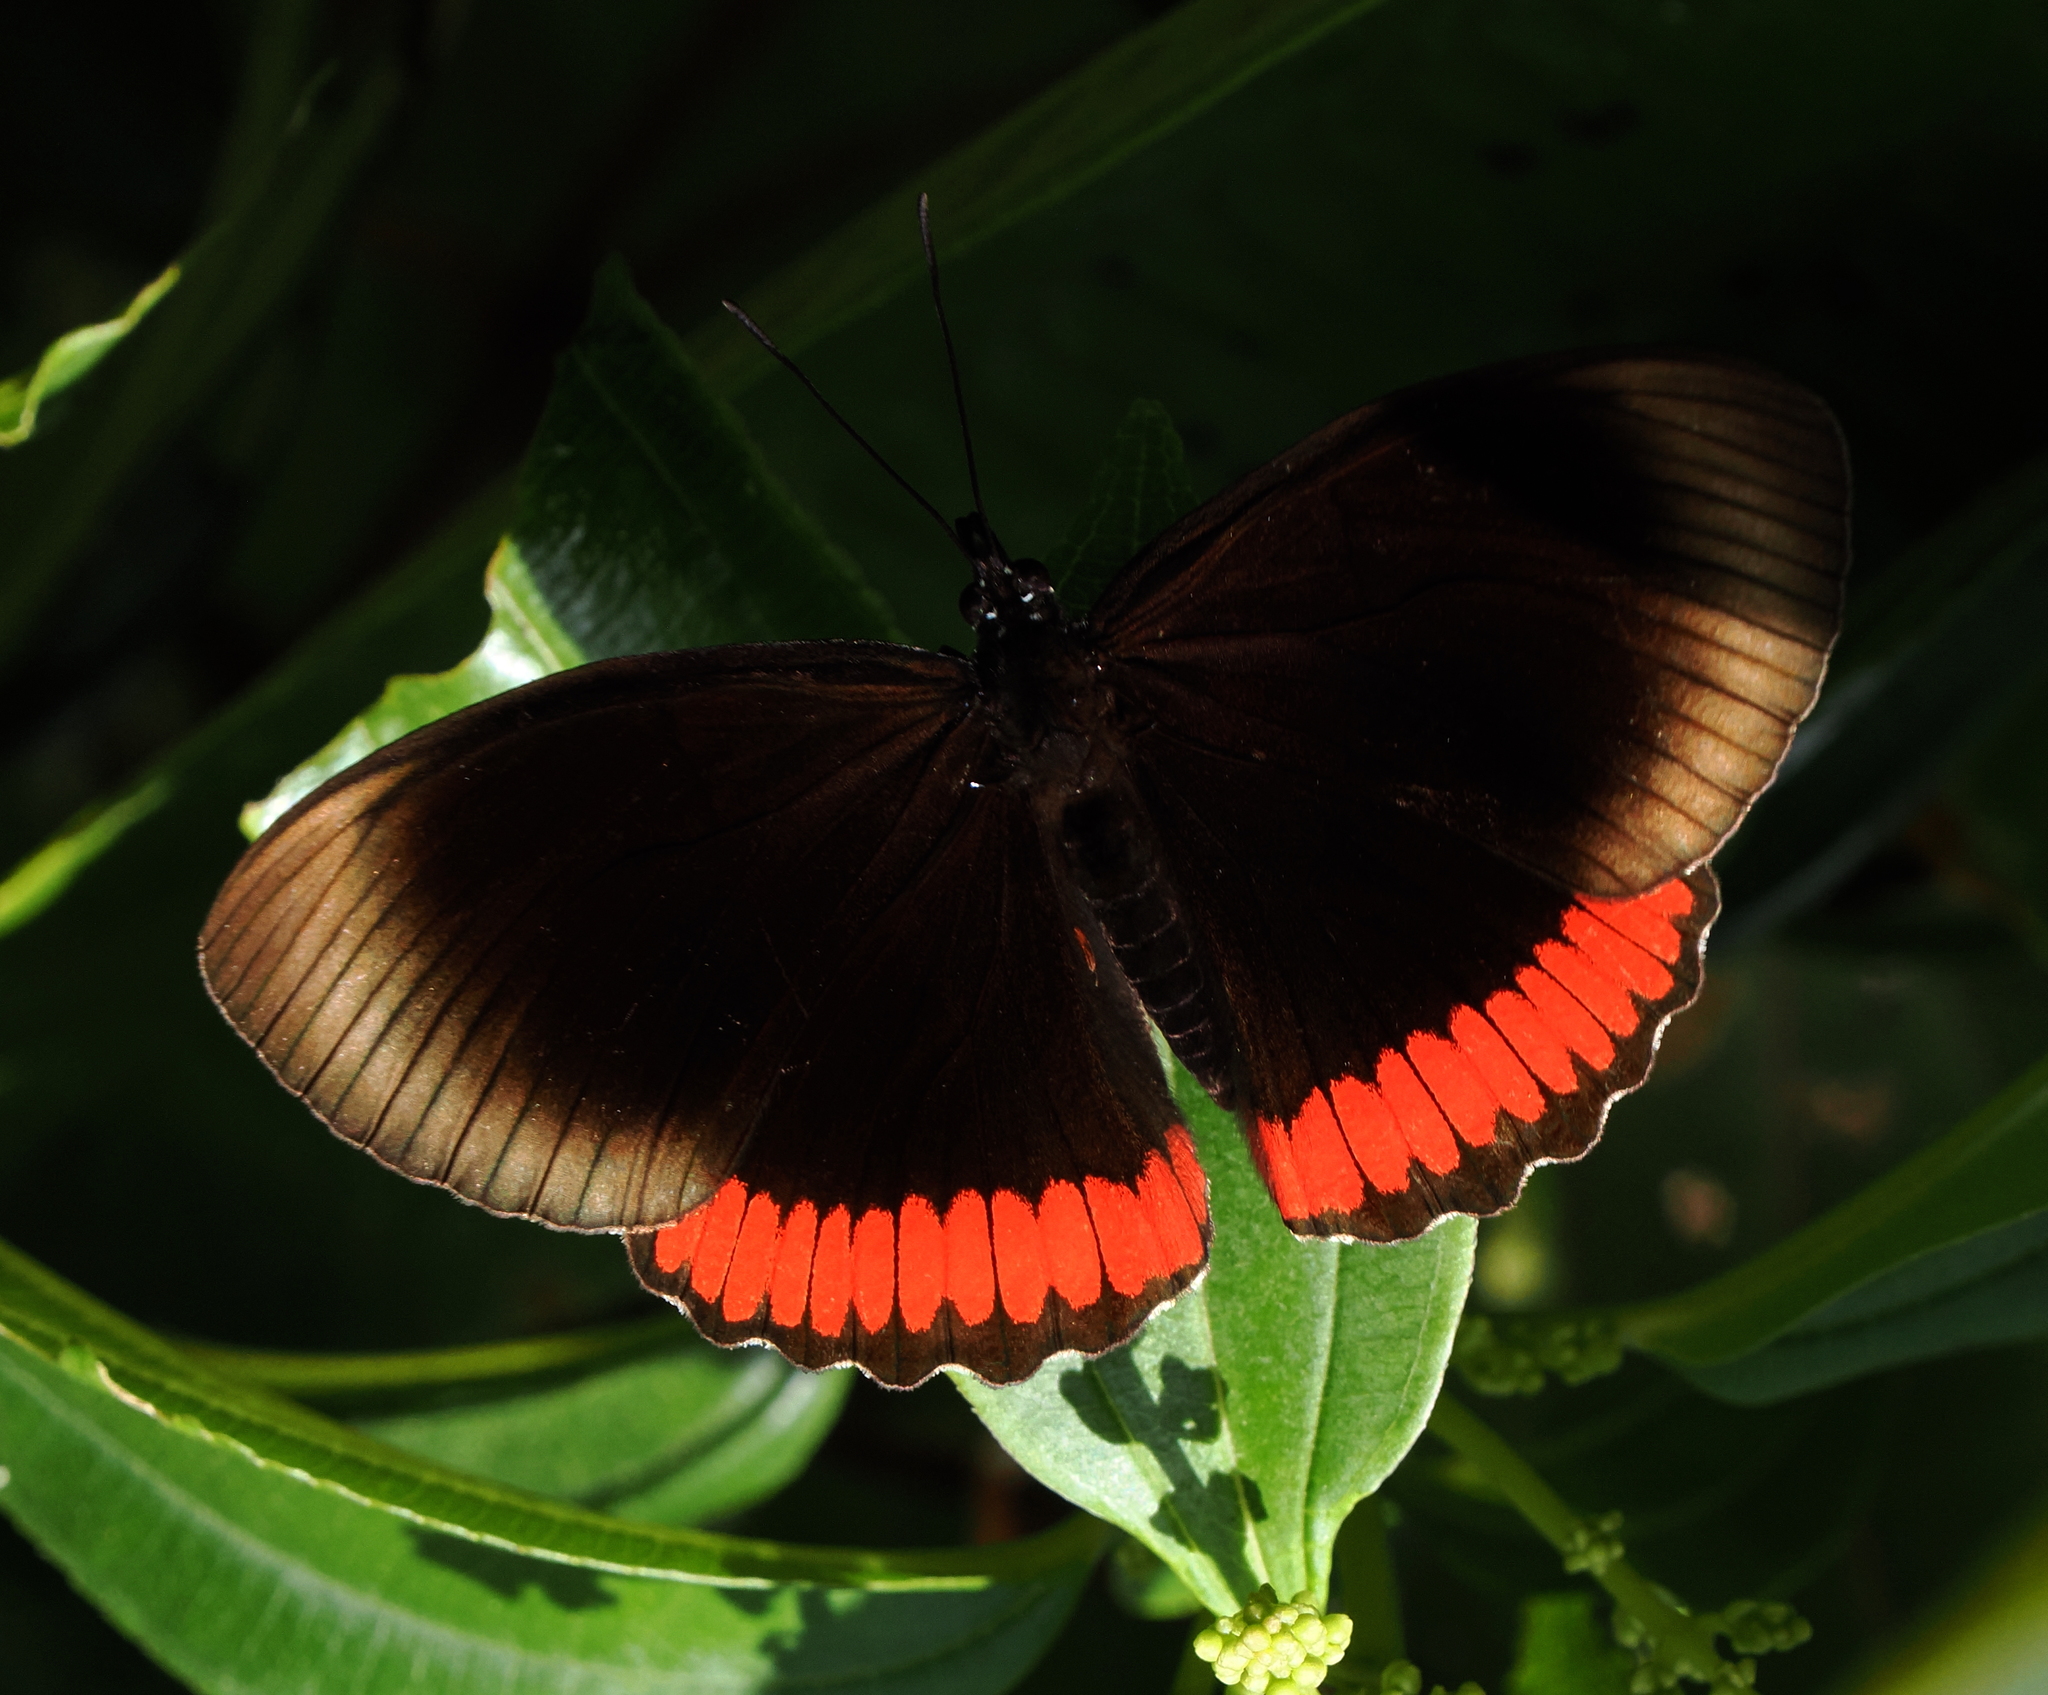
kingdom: Animalia
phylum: Arthropoda
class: Insecta
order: Lepidoptera
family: Sesiidae
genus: Sesia
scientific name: Sesia Biblis hyperia
